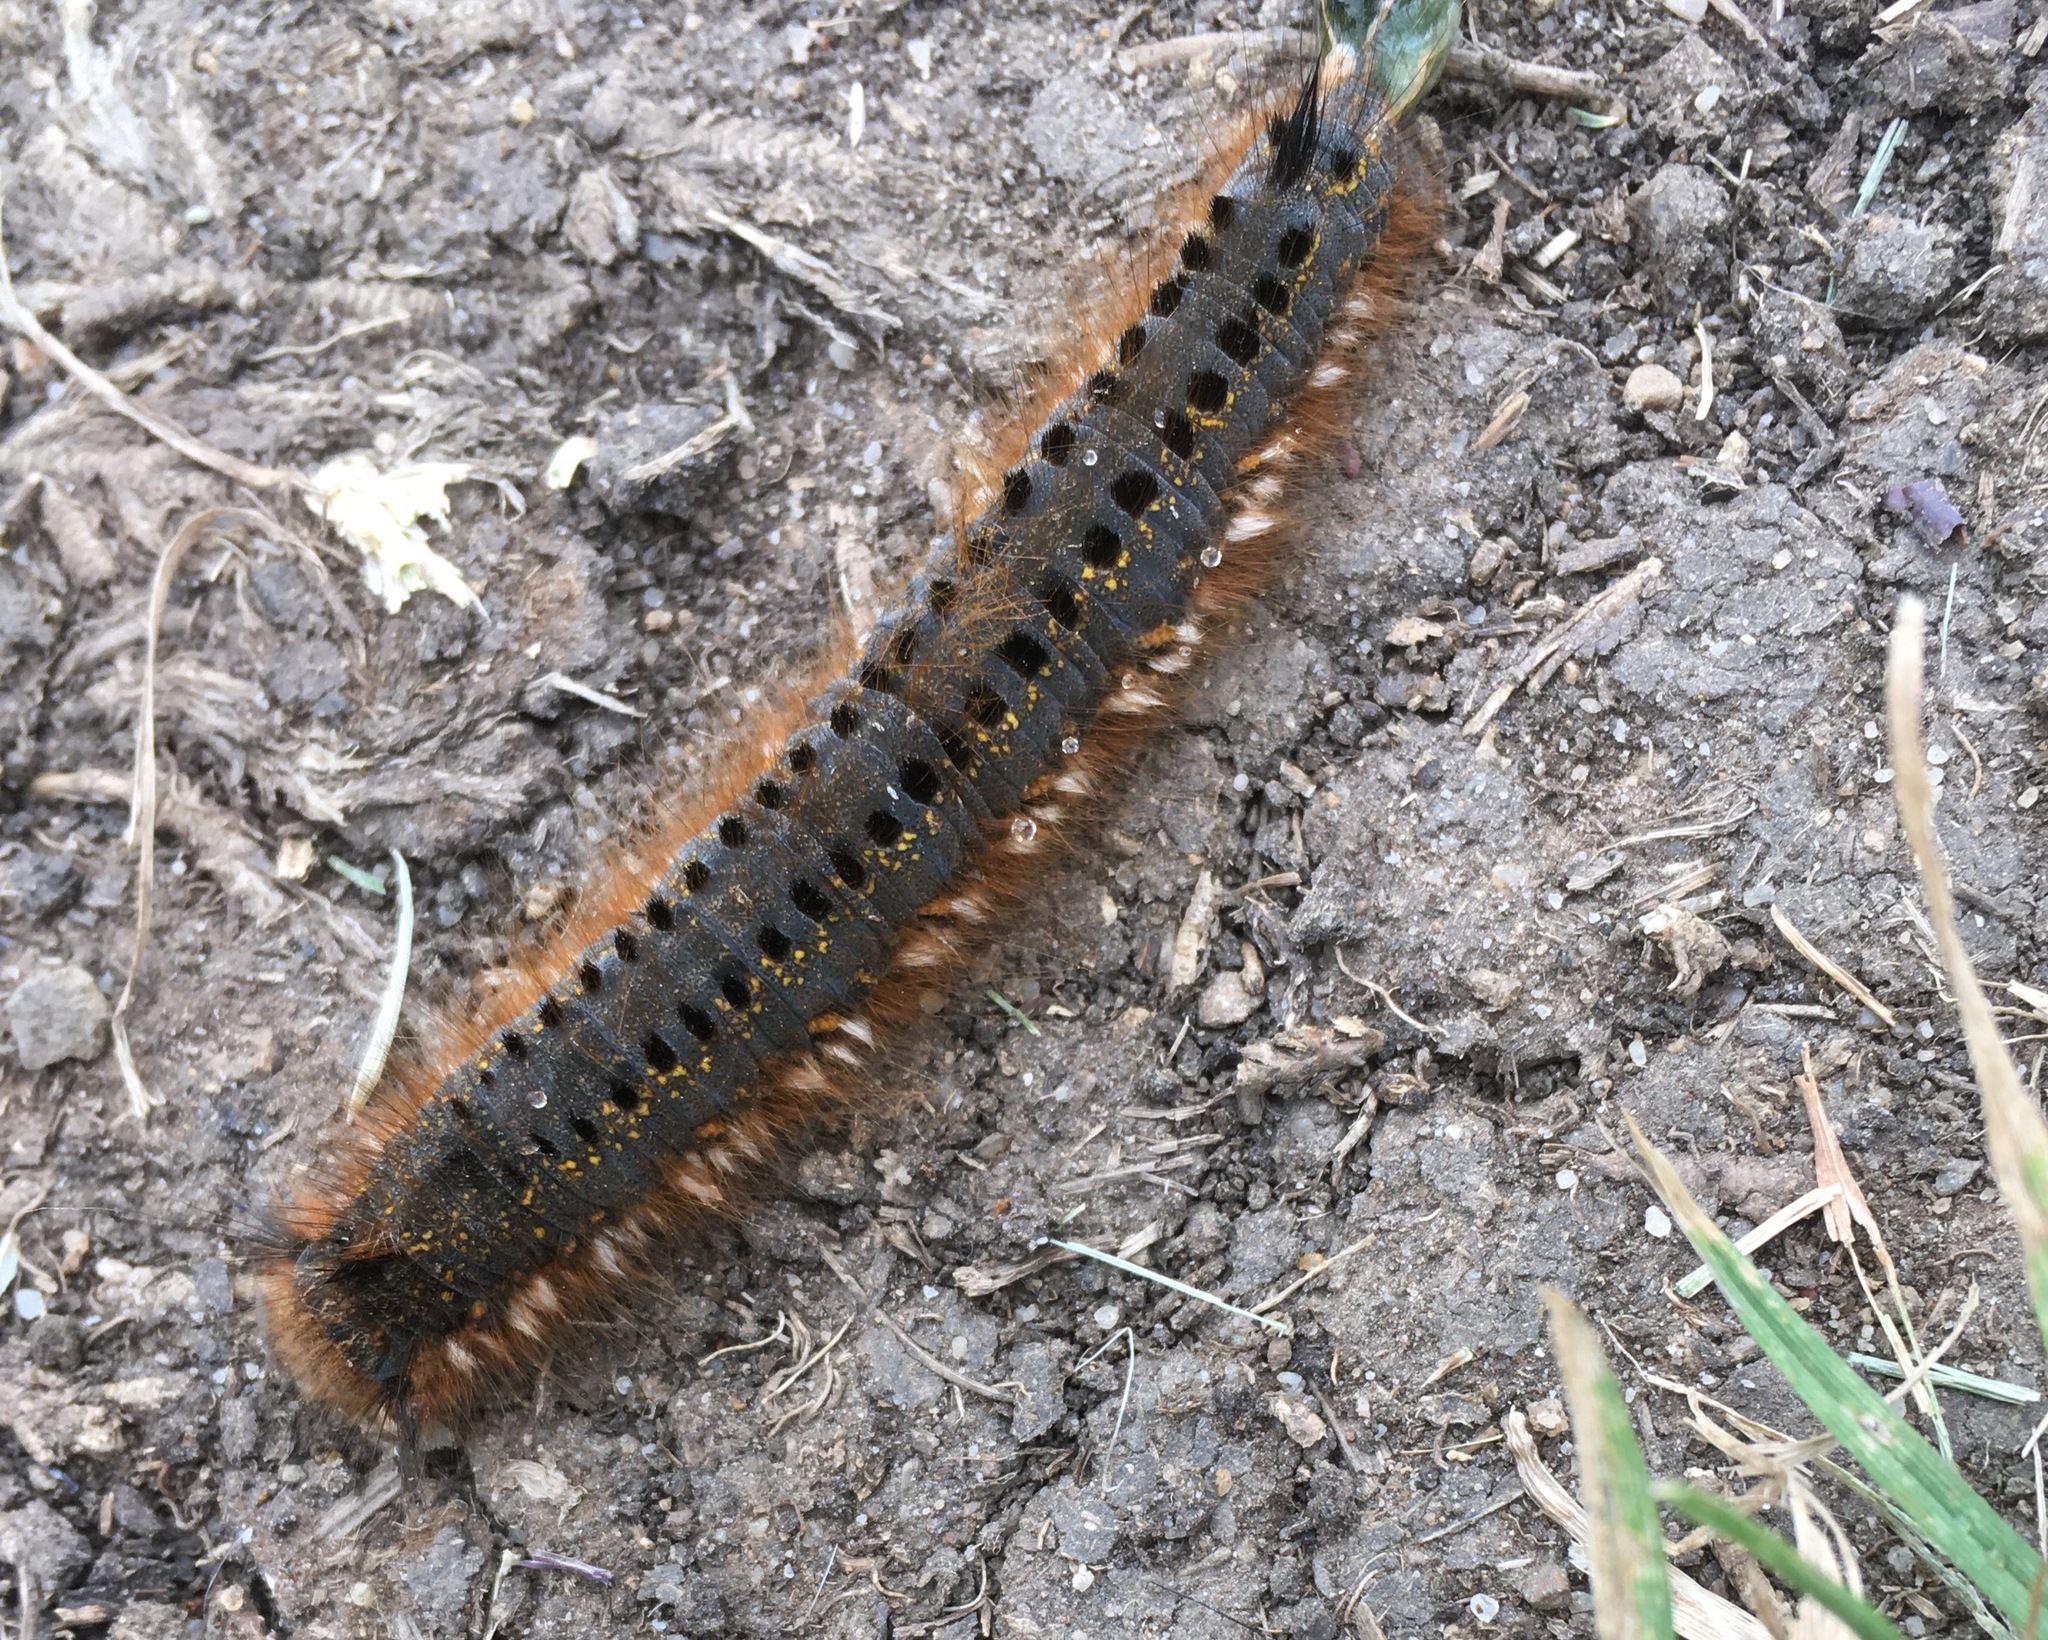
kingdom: Animalia
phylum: Arthropoda
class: Insecta
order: Lepidoptera
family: Lasiocampidae
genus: Euthrix
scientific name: Euthrix potatoria
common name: Drinker
